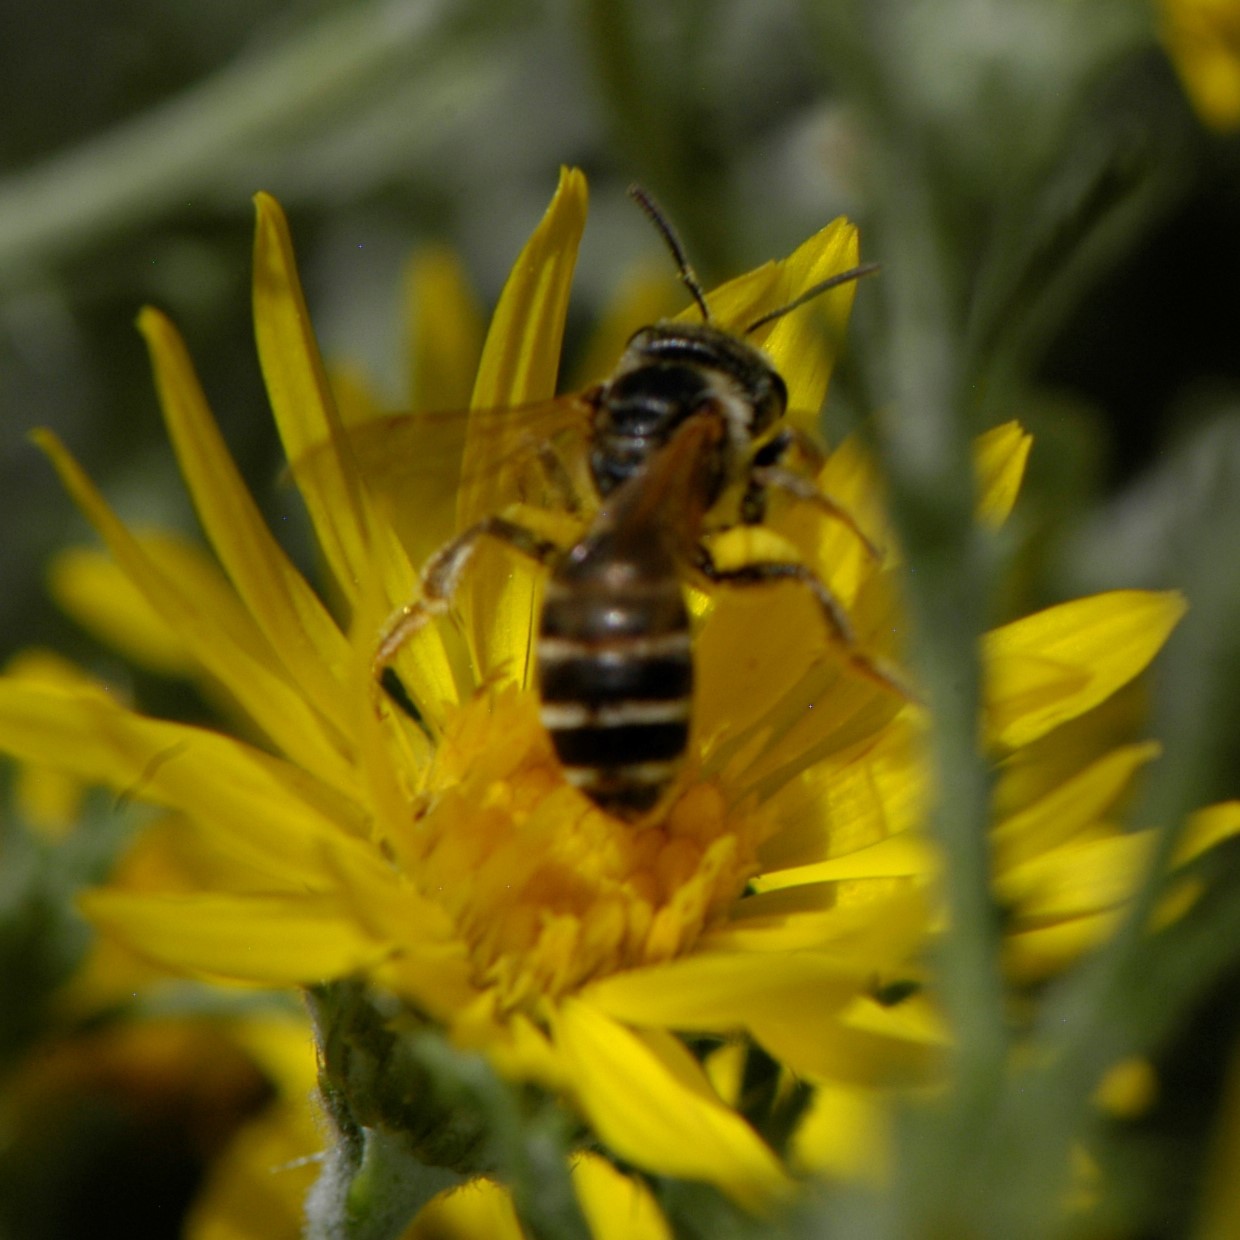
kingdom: Animalia
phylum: Arthropoda
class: Insecta
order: Hymenoptera
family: Halictidae
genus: Halictus
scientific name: Halictus ligatus
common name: Ligated furrow bee
